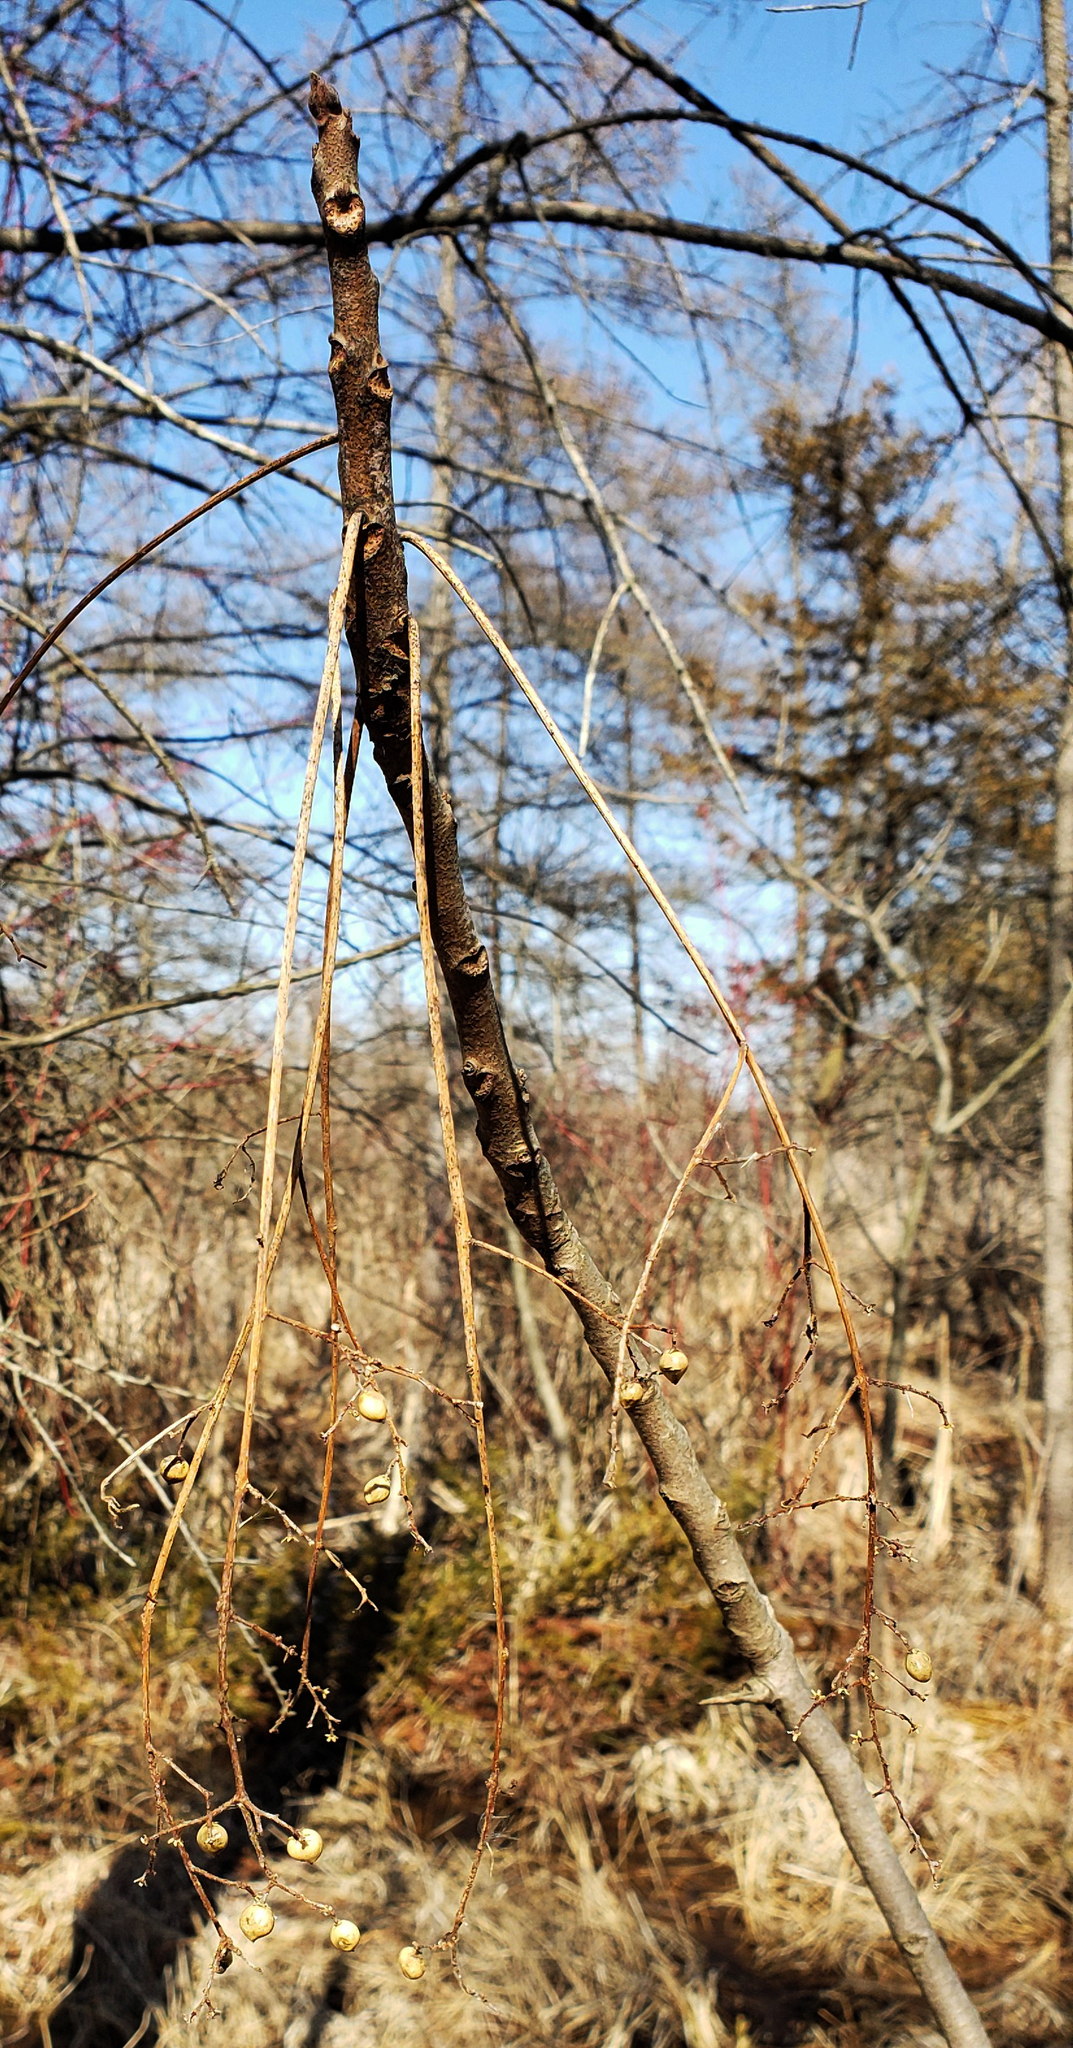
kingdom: Plantae
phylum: Tracheophyta
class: Magnoliopsida
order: Sapindales
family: Anacardiaceae
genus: Toxicodendron
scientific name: Toxicodendron vernix
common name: Poison sumac
